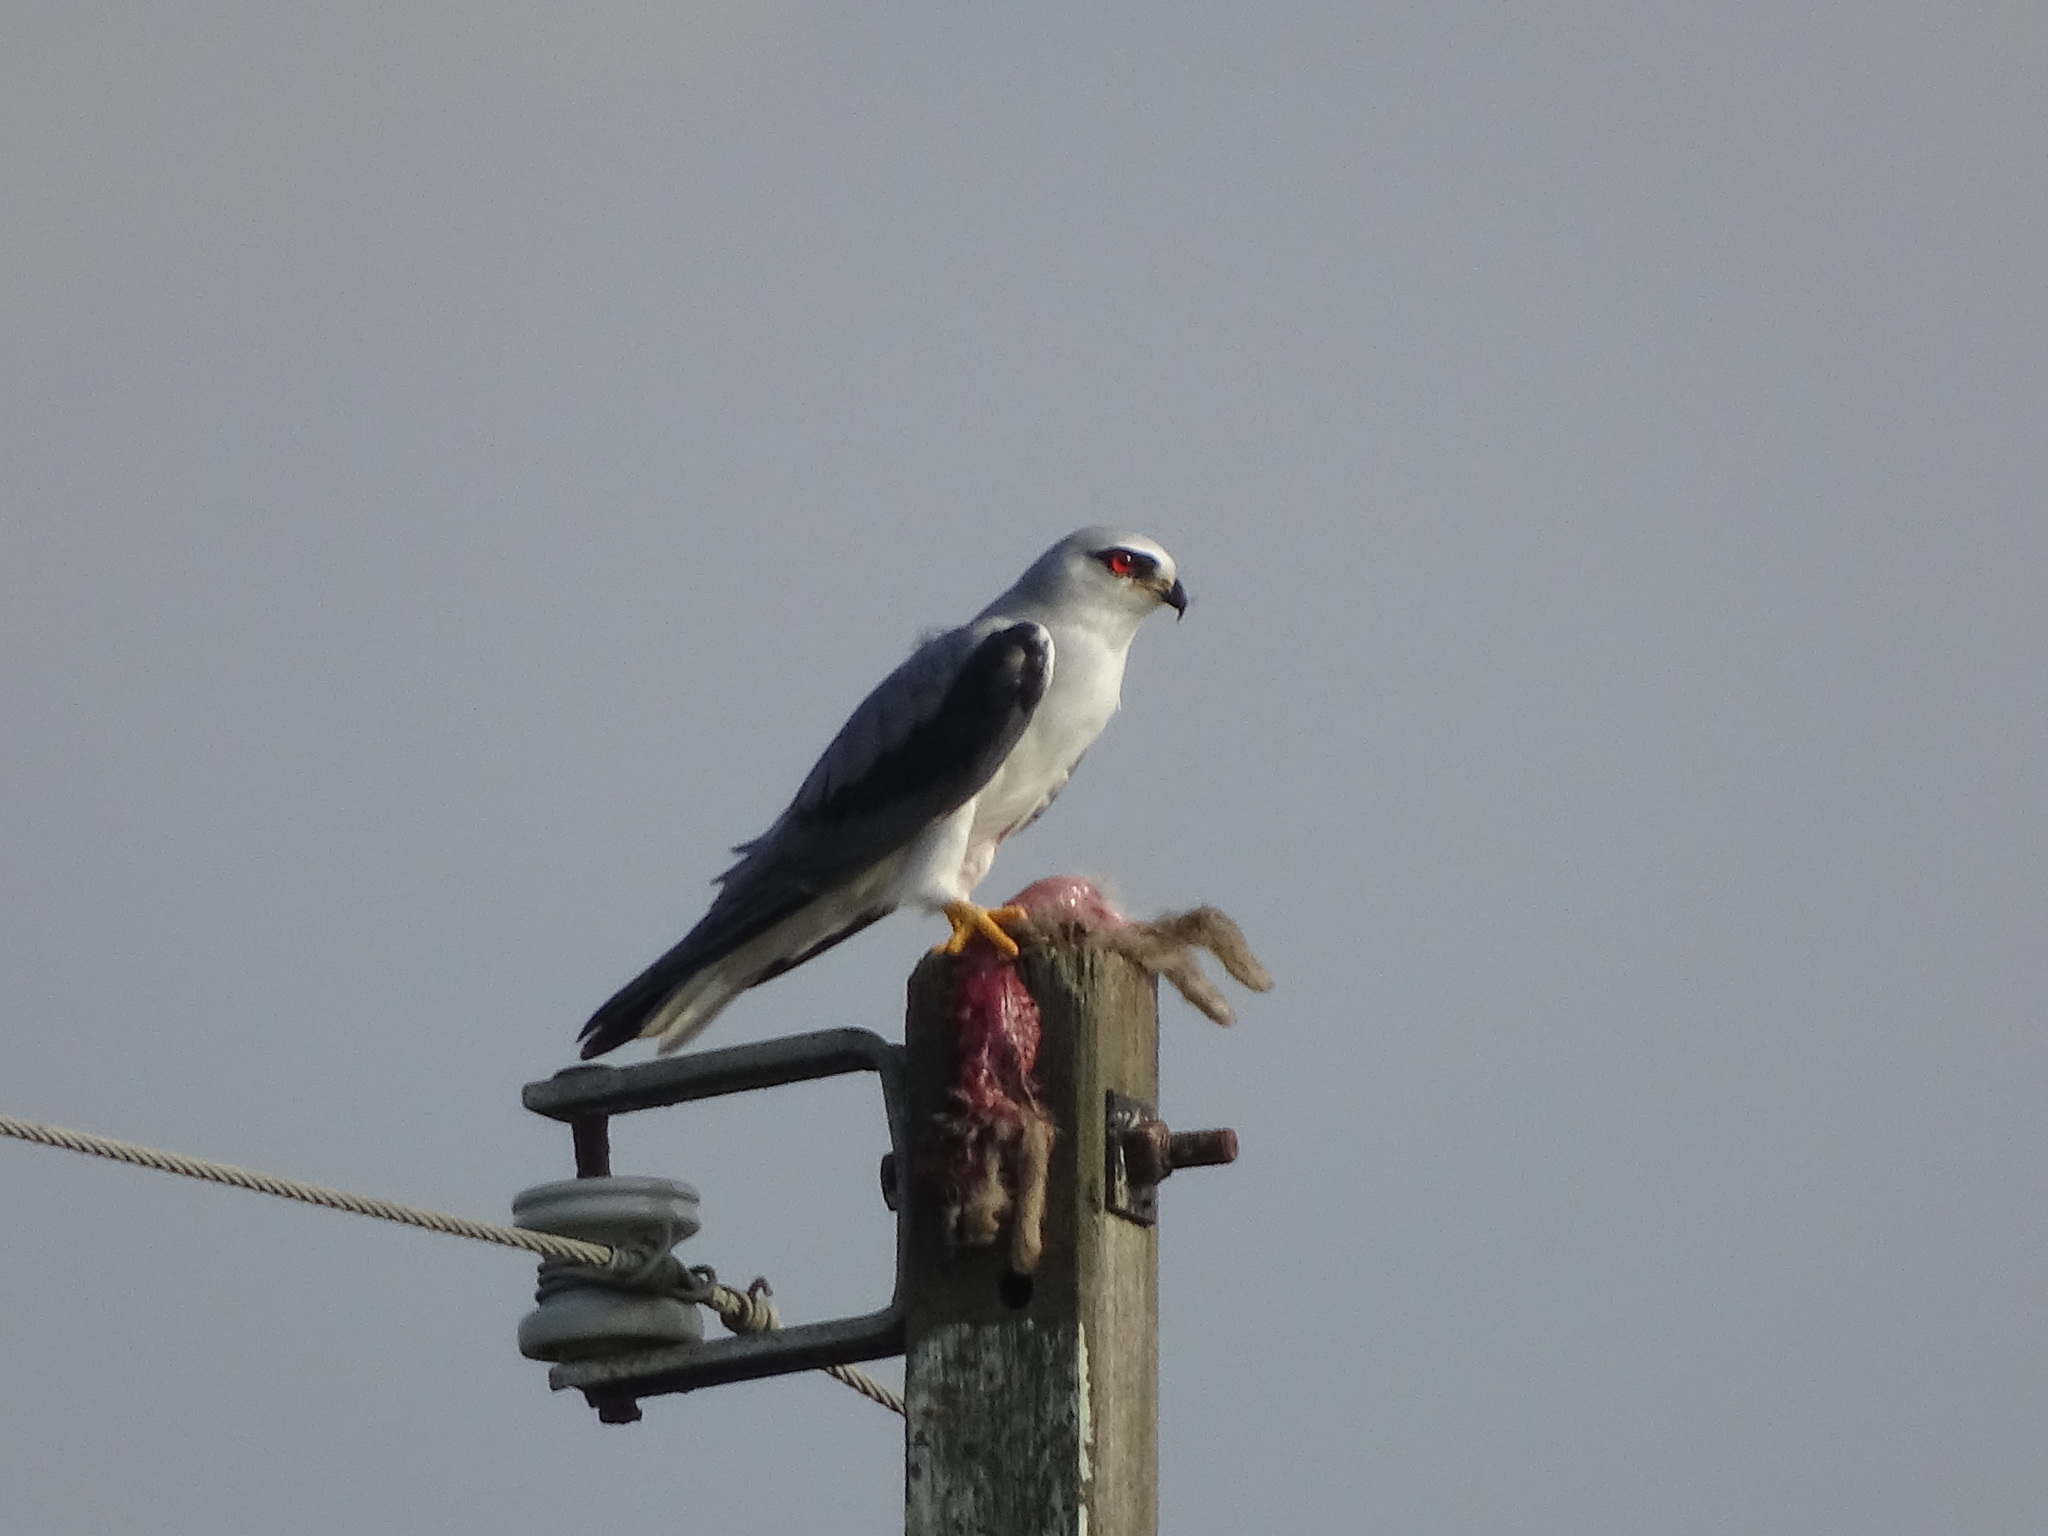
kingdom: Animalia
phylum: Chordata
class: Aves
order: Accipitriformes
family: Accipitridae
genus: Elanus
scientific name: Elanus caeruleus
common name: Black-winged kite
